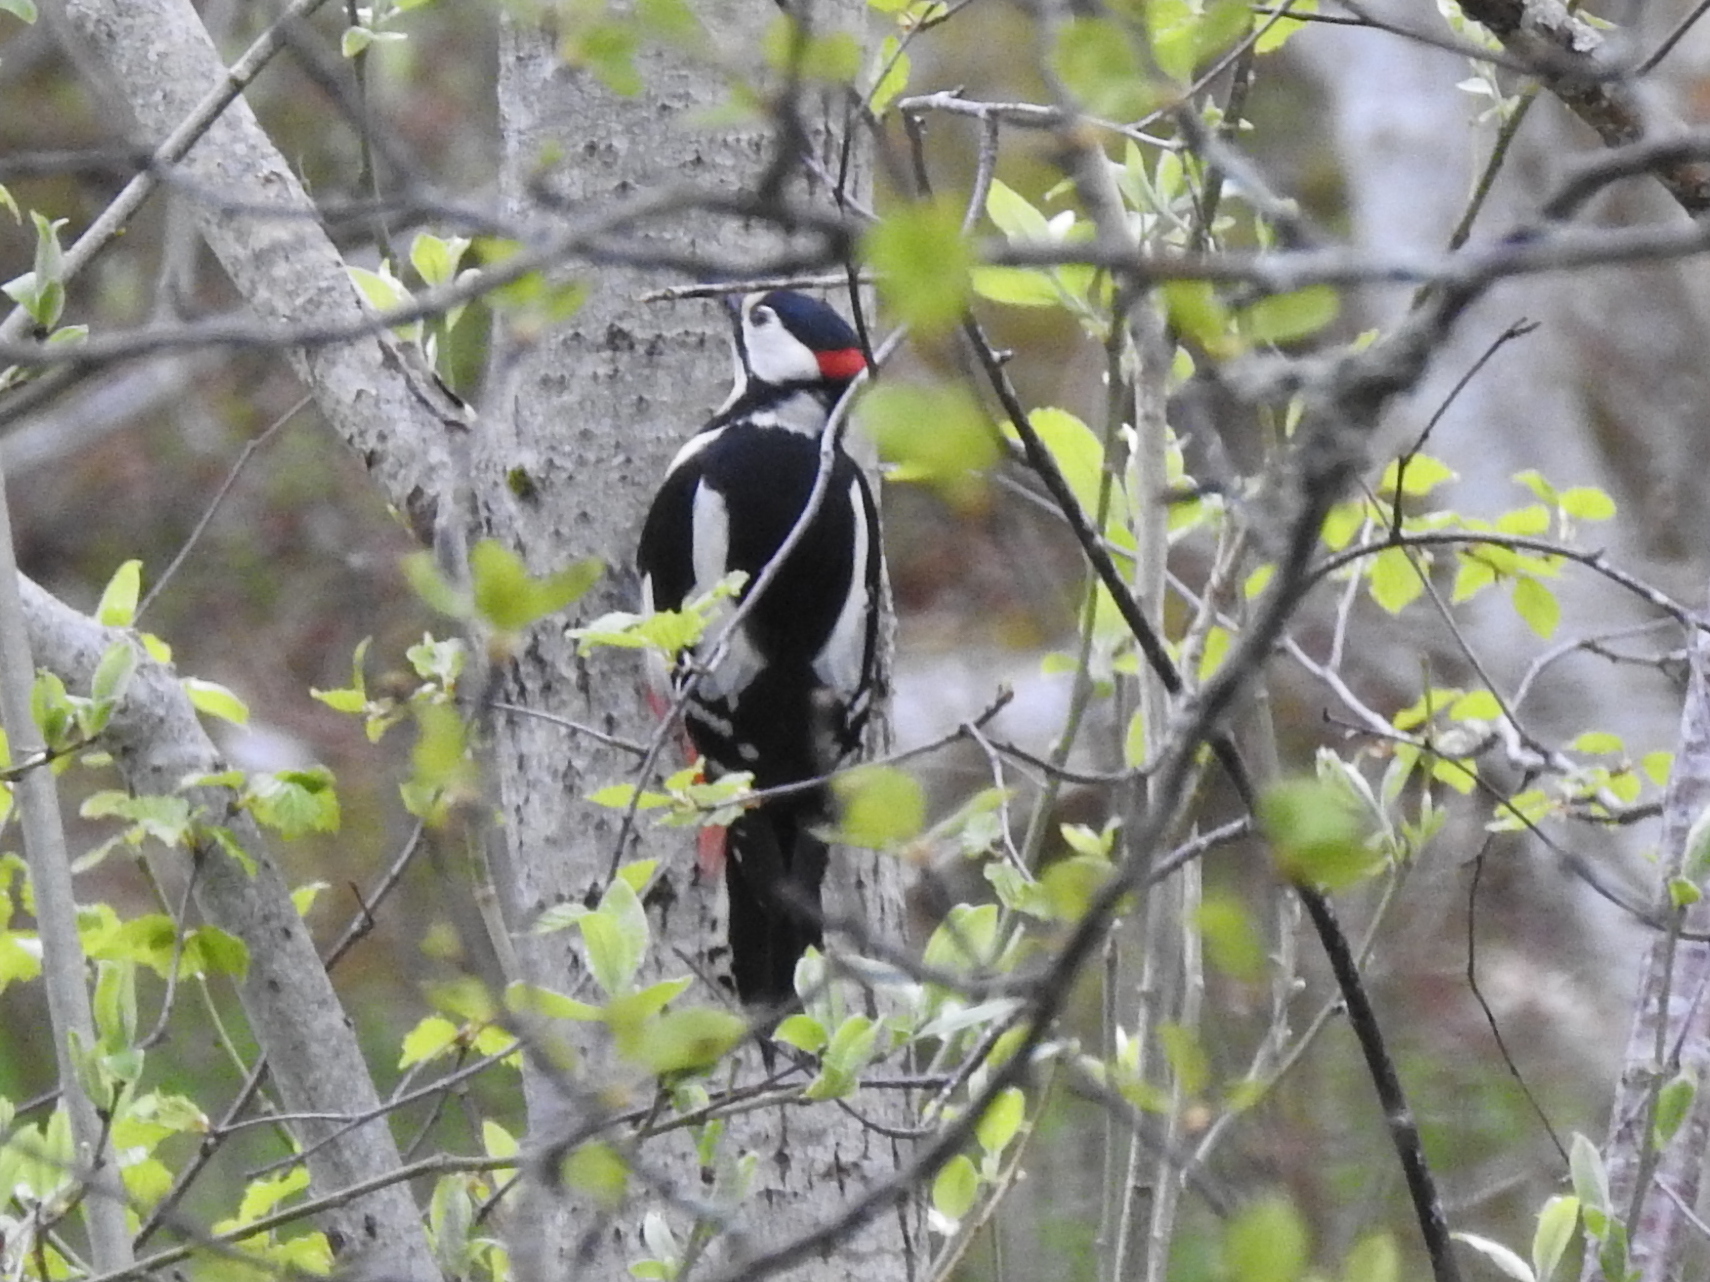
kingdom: Animalia
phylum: Chordata
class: Aves
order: Piciformes
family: Picidae
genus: Dendrocopos
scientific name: Dendrocopos major
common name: Great spotted woodpecker
